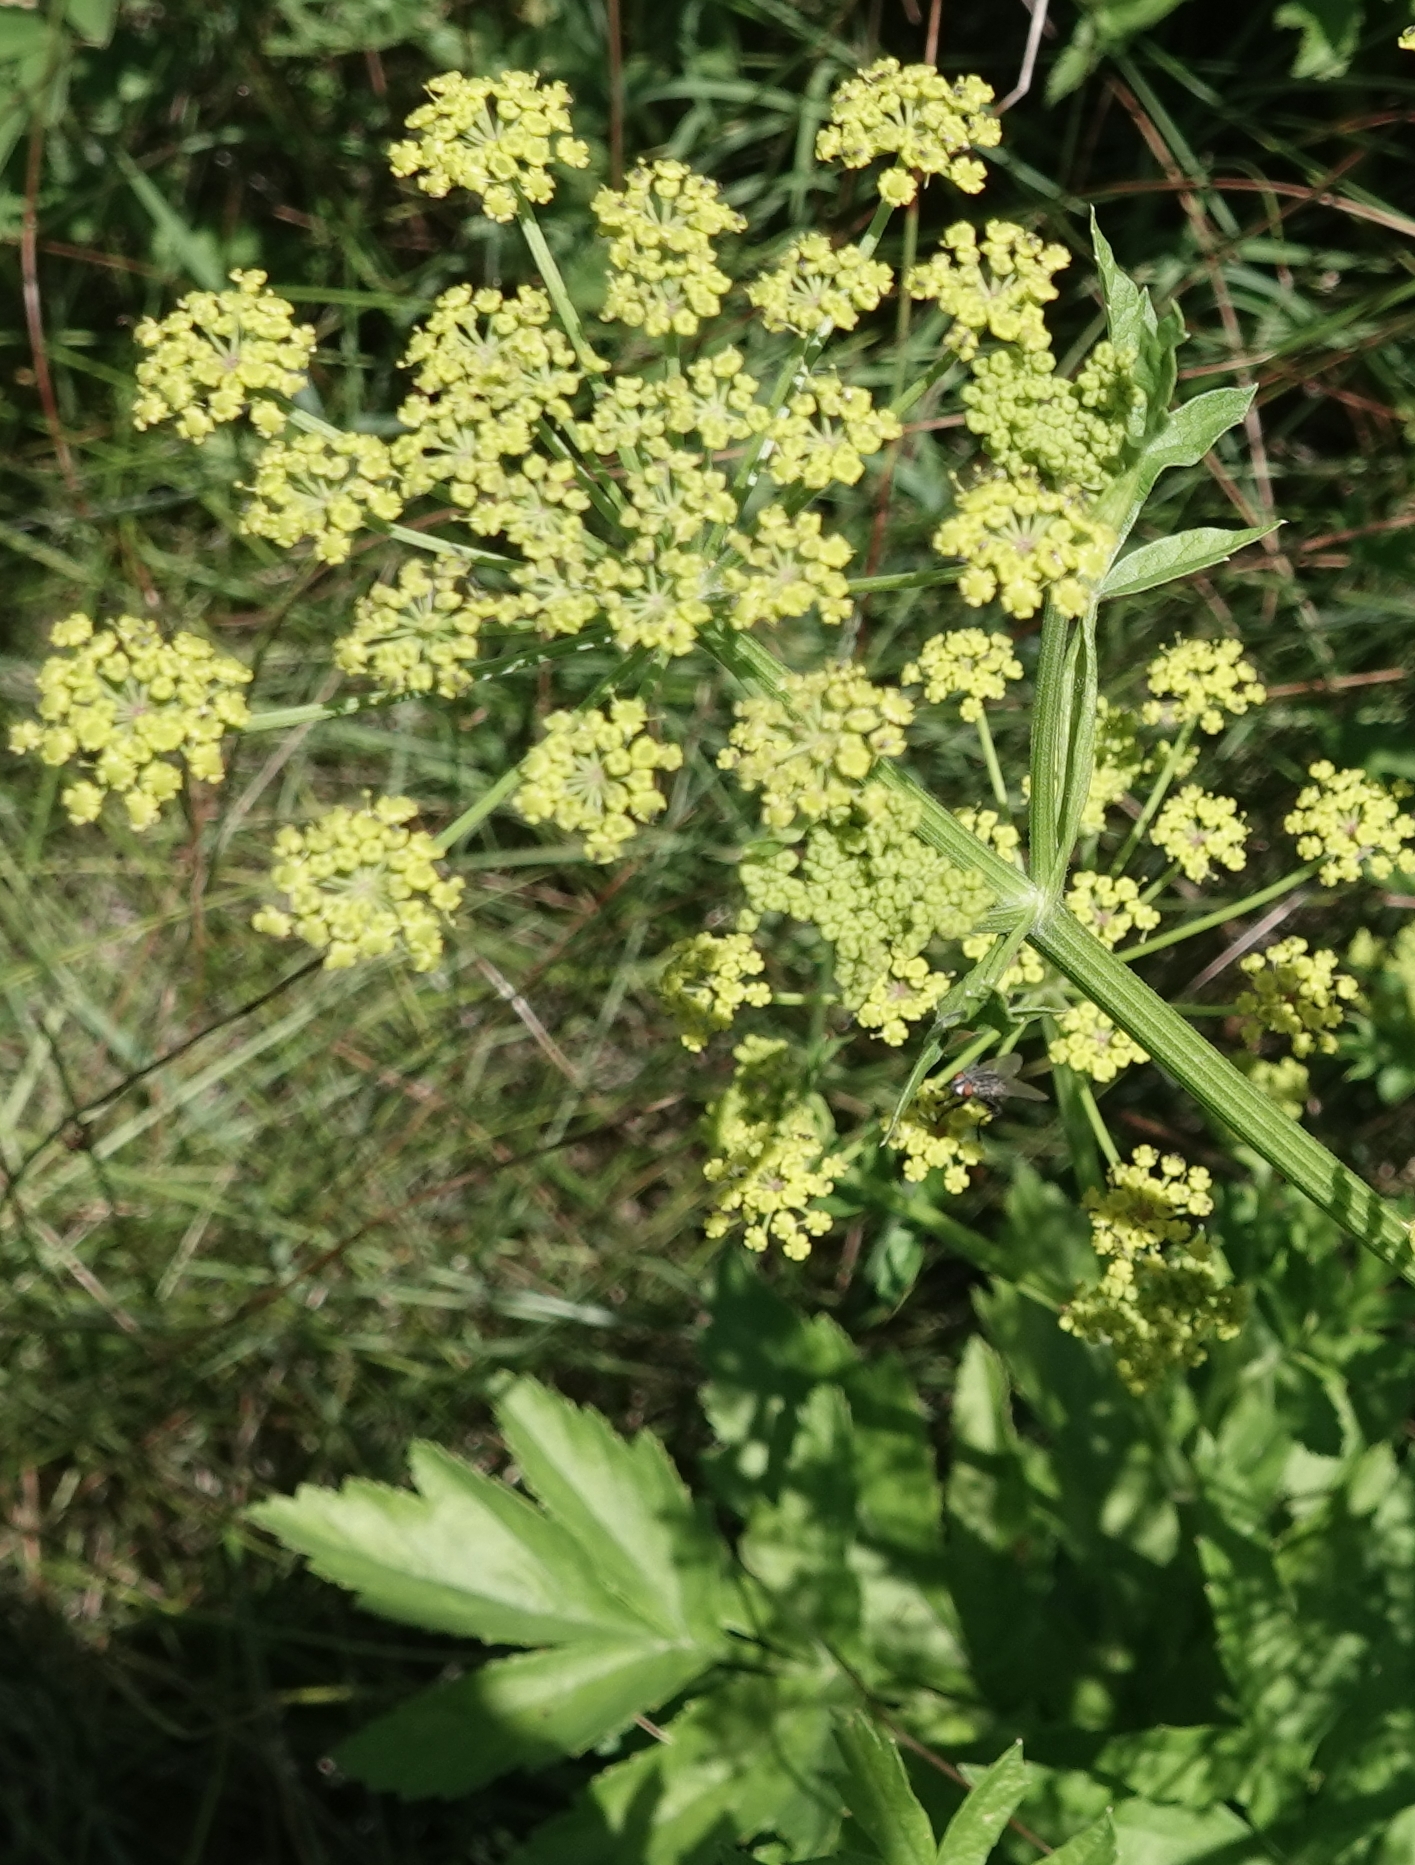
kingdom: Plantae
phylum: Tracheophyta
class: Magnoliopsida
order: Apiales
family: Apiaceae
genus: Pastinaca
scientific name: Pastinaca sativa
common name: Wild parsnip
